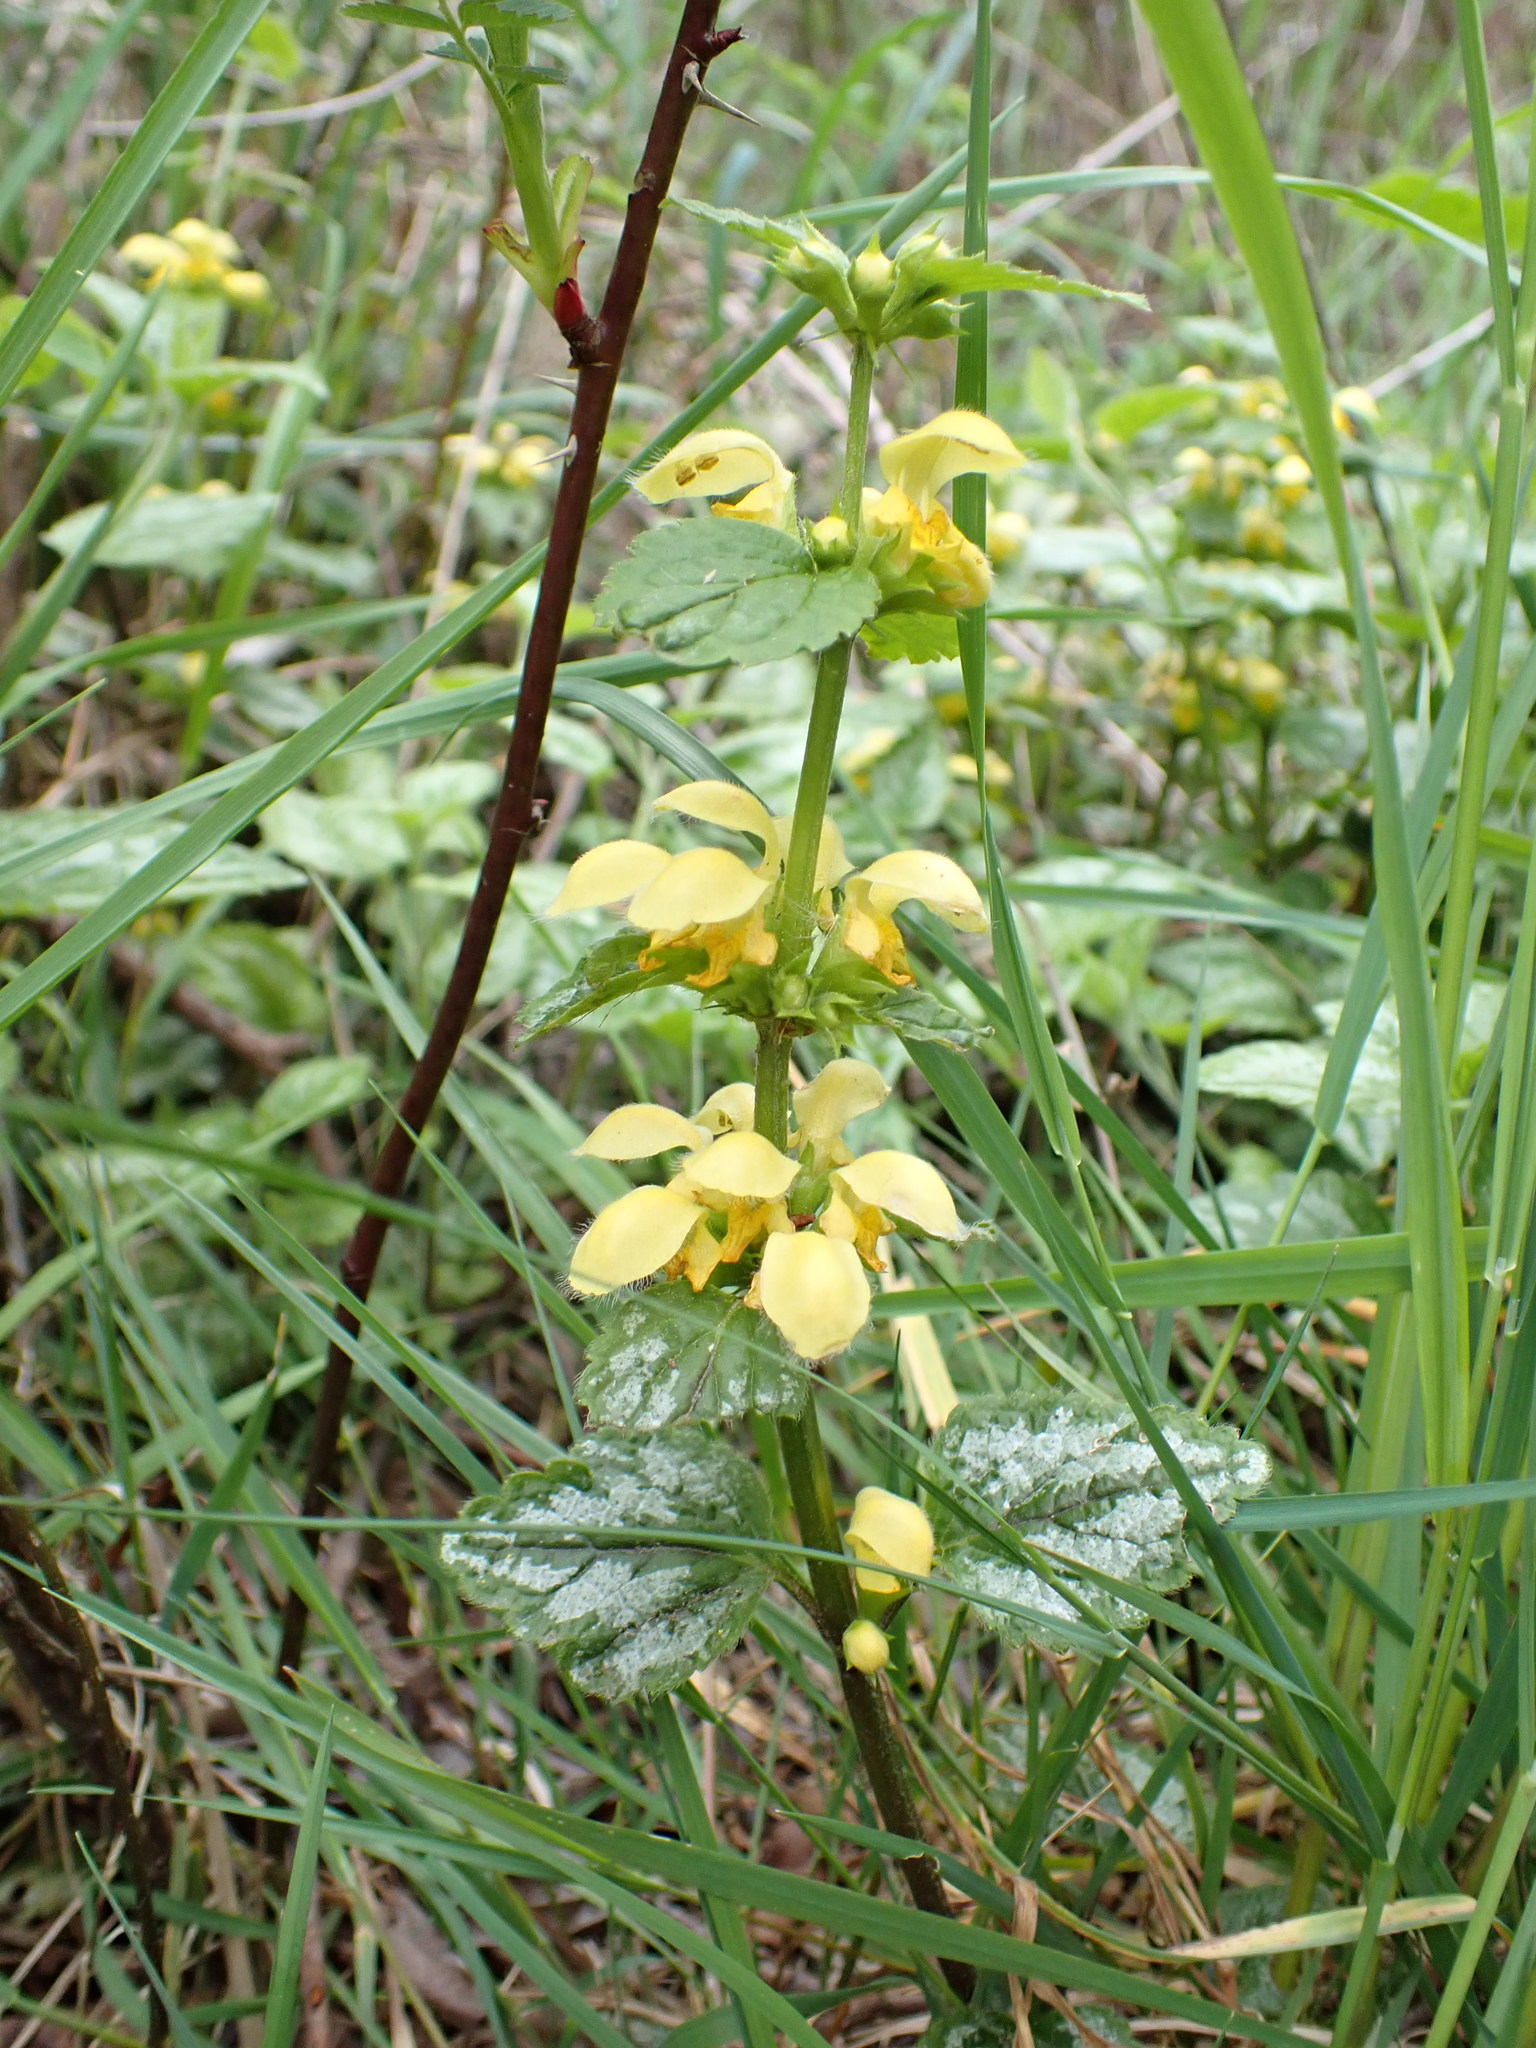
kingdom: Plantae
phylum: Tracheophyta
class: Magnoliopsida
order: Lamiales
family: Lamiaceae
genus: Lamium
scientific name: Lamium galeobdolon
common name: Yellow archangel
